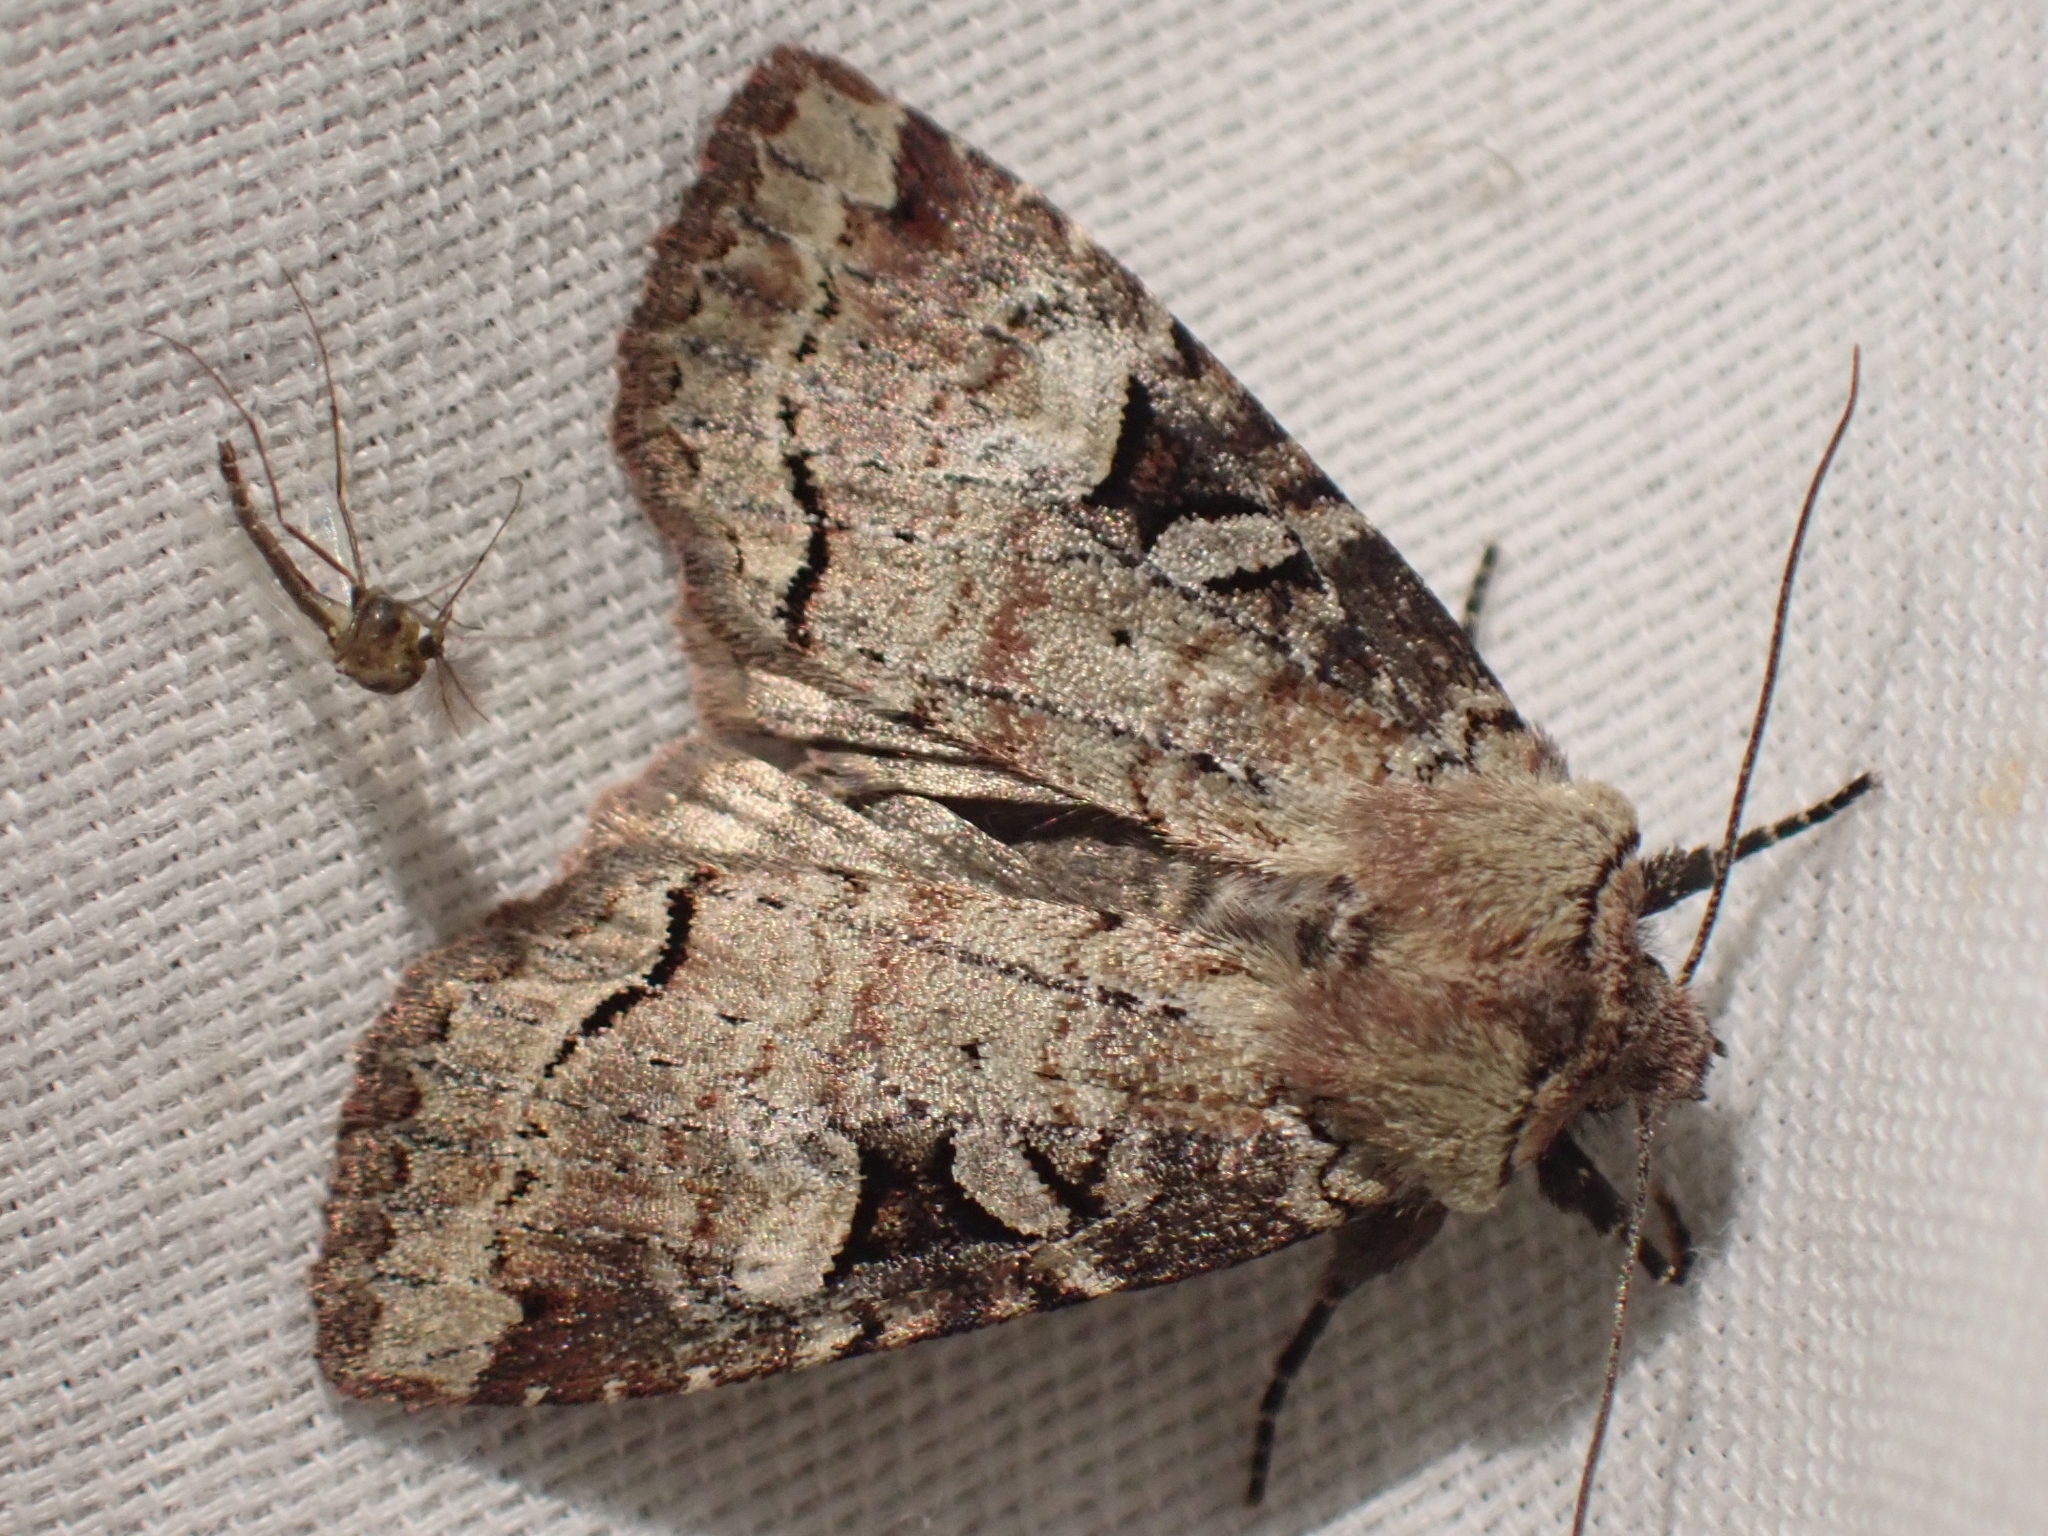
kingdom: Animalia
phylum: Arthropoda
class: Insecta
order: Lepidoptera
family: Noctuidae
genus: Hillia
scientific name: Hillia iris
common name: Iris rover moth
